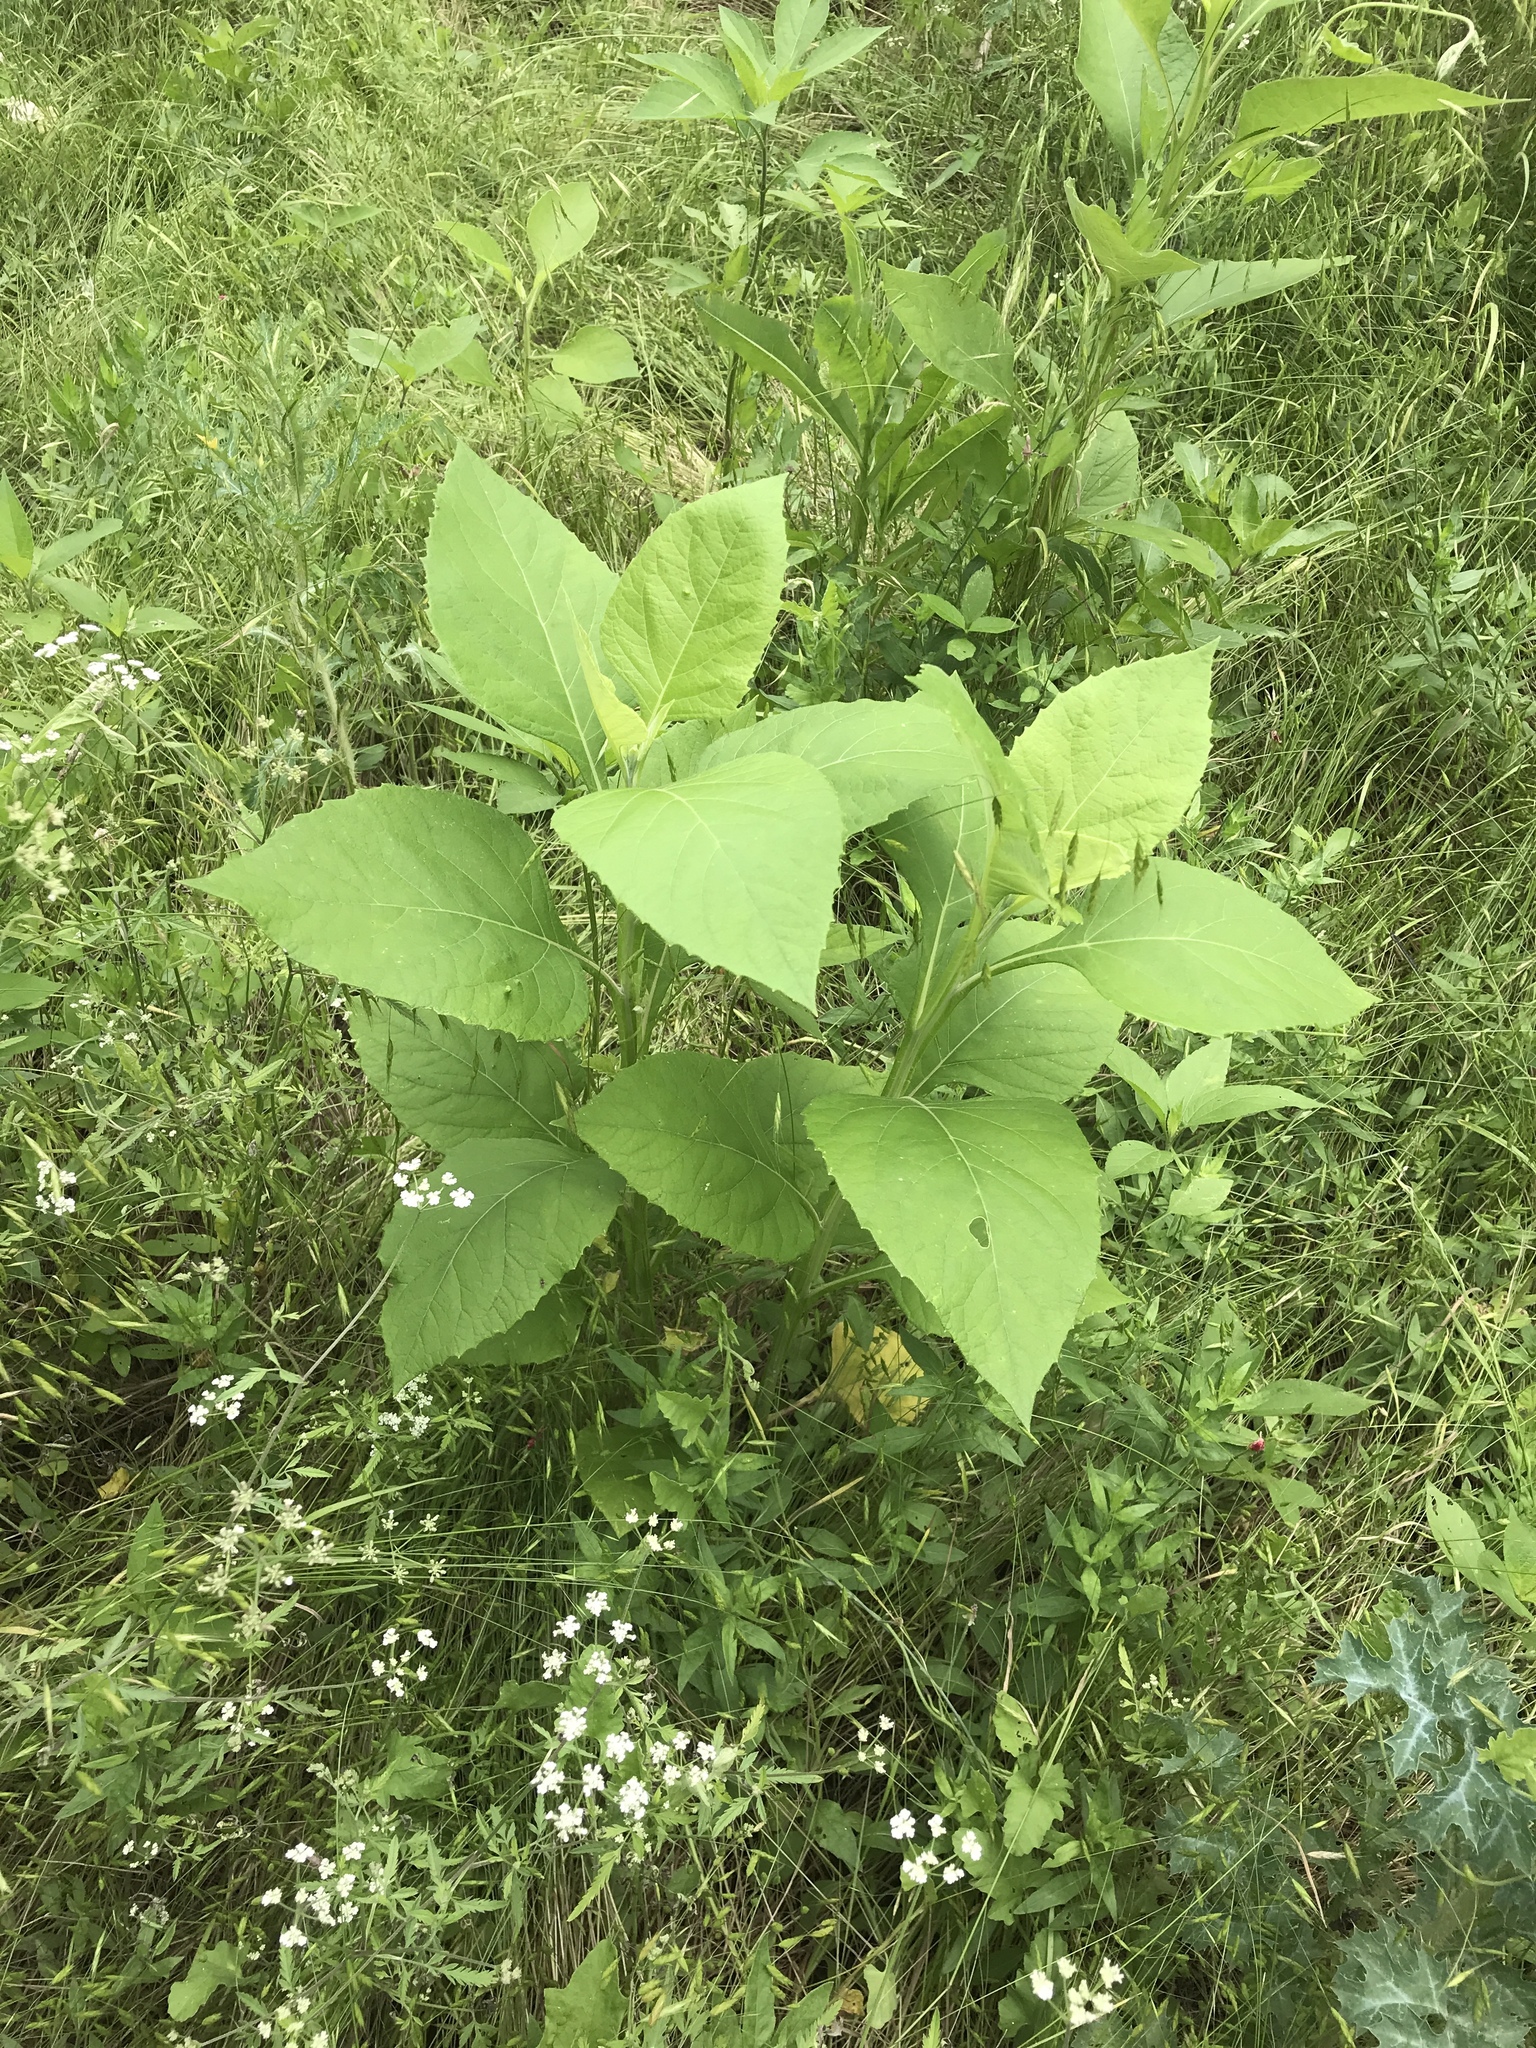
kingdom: Plantae
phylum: Tracheophyta
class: Magnoliopsida
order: Asterales
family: Asteraceae
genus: Verbesina
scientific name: Verbesina virginica
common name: Frostweed
